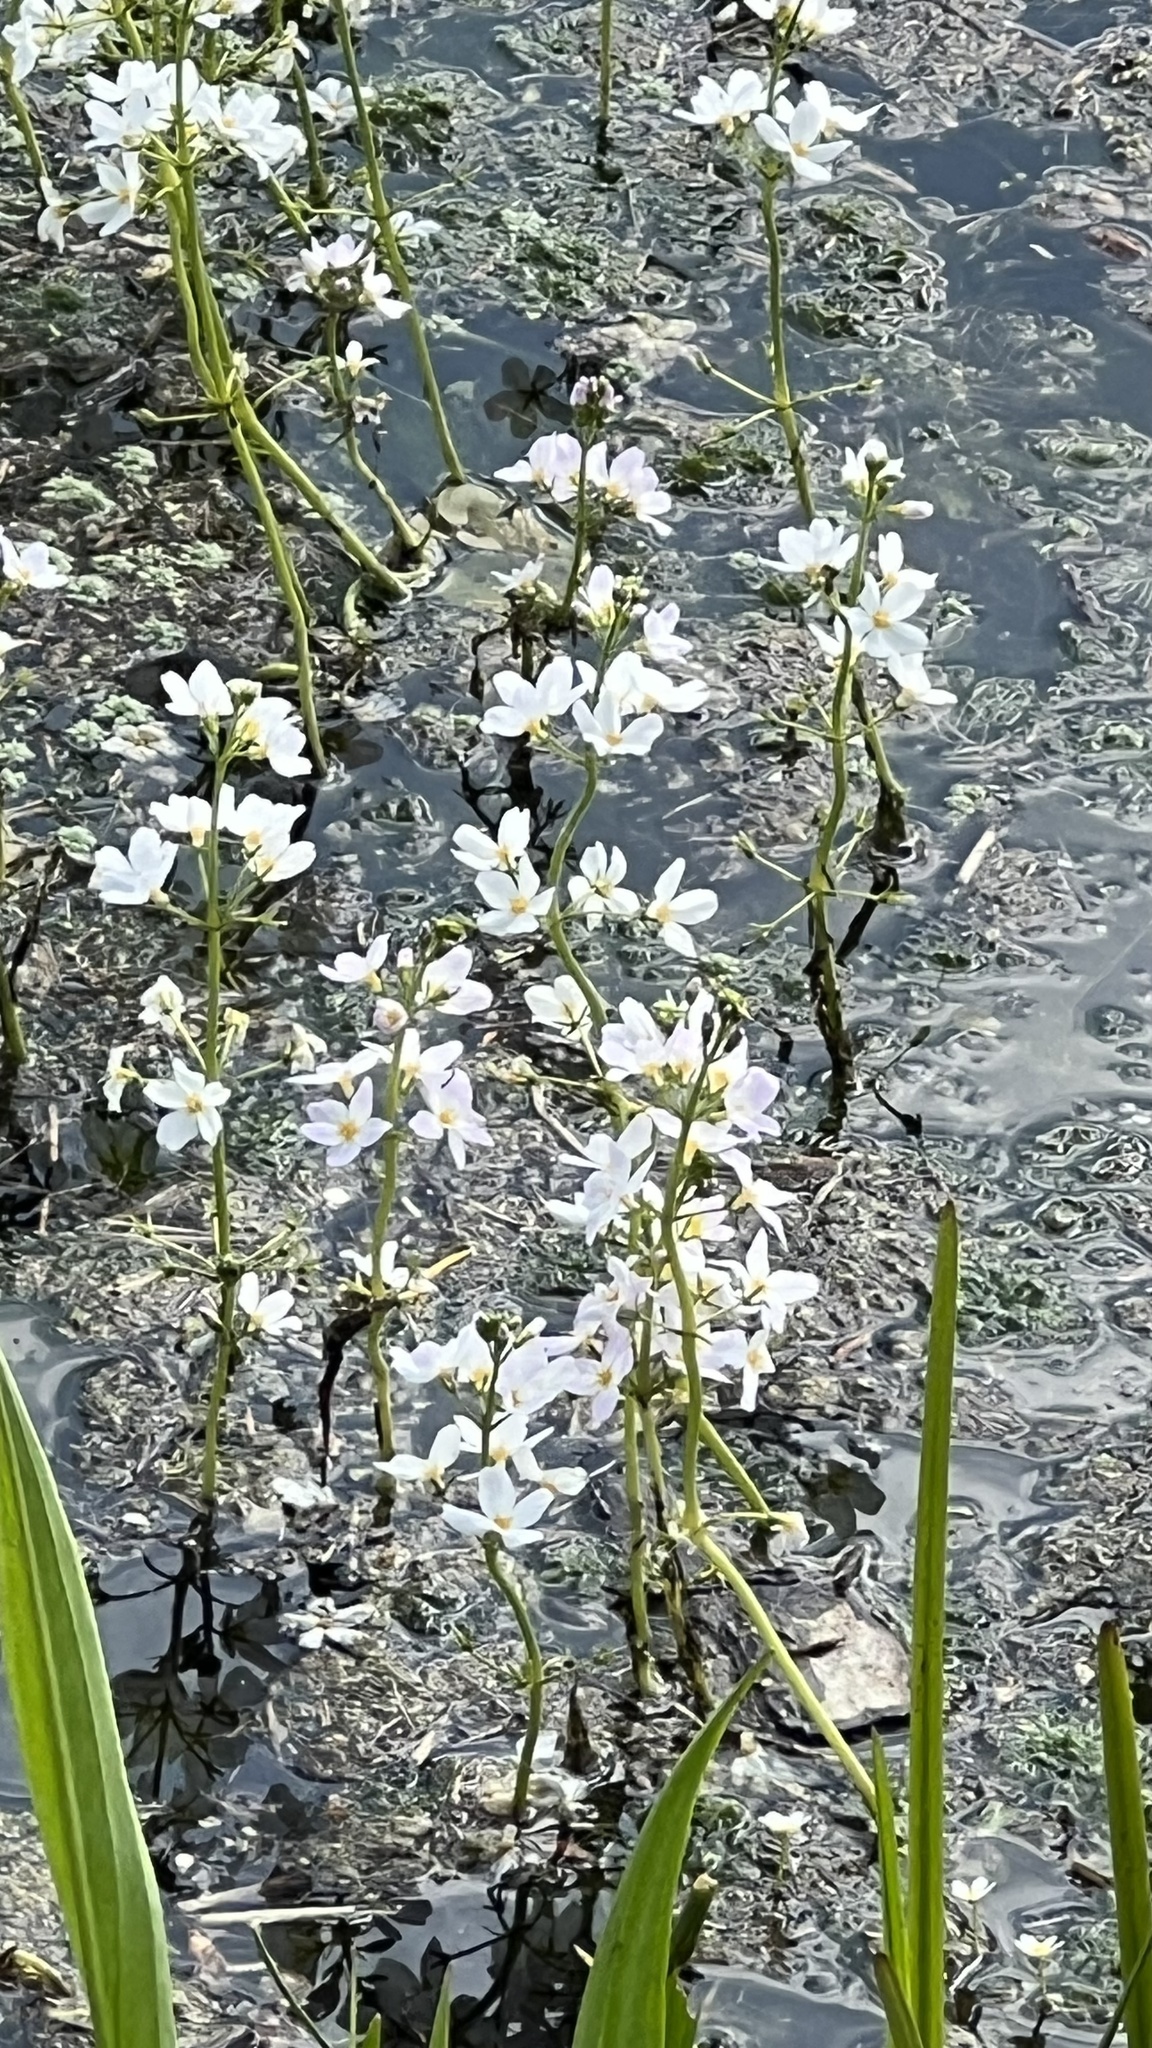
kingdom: Plantae
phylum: Tracheophyta
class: Magnoliopsida
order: Ericales
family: Primulaceae
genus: Hottonia
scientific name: Hottonia palustris
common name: Water-violet
